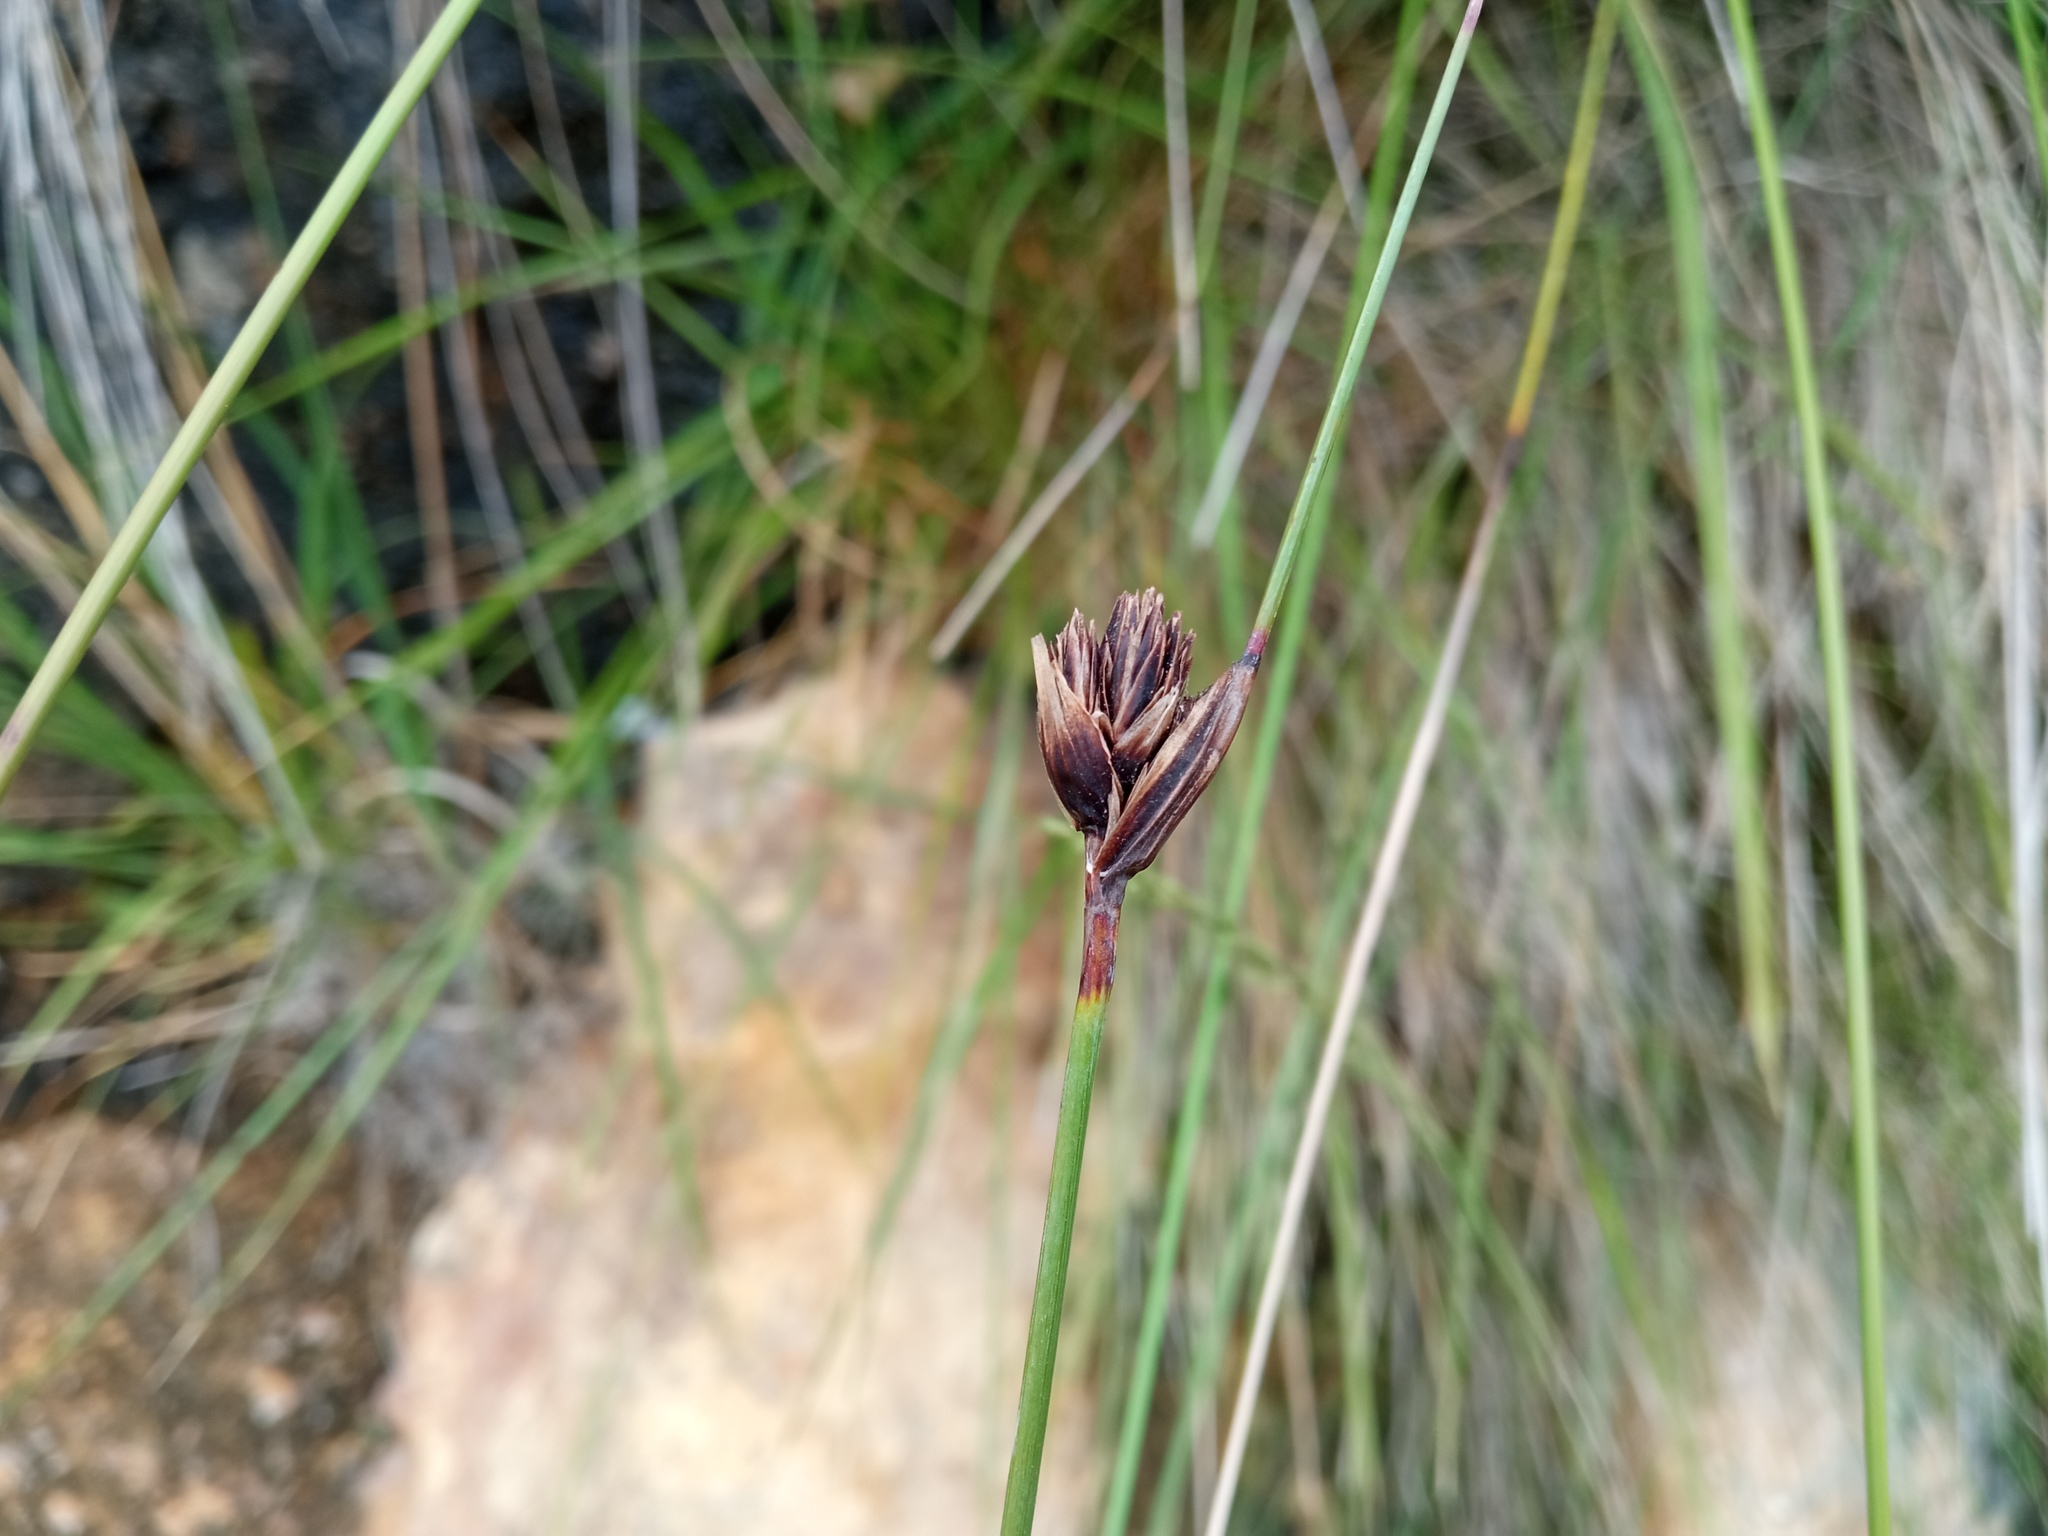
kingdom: Plantae
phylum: Tracheophyta
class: Liliopsida
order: Poales
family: Cyperaceae
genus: Schoenus
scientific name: Schoenus nigricans
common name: Black bog-rush
